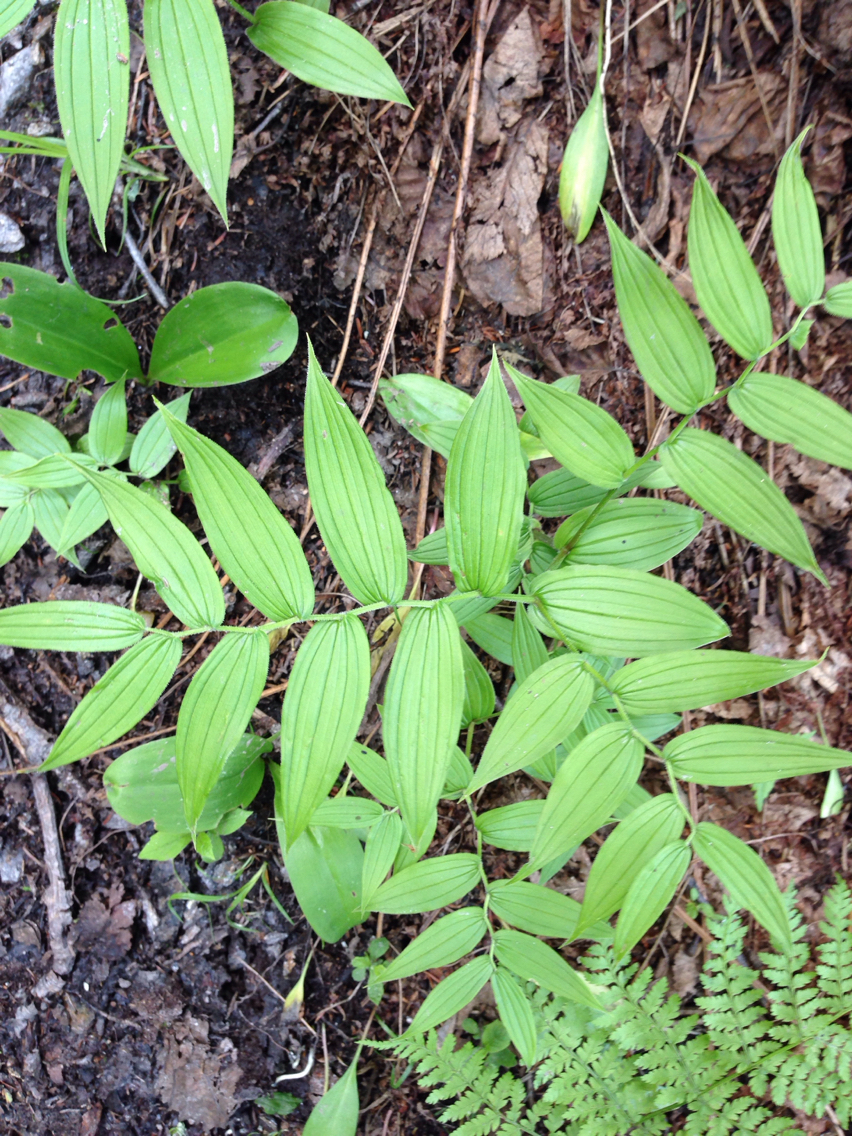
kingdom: Plantae
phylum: Tracheophyta
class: Liliopsida
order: Liliales
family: Liliaceae
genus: Streptopus
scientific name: Streptopus lanceolatus
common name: Rose mandarin
